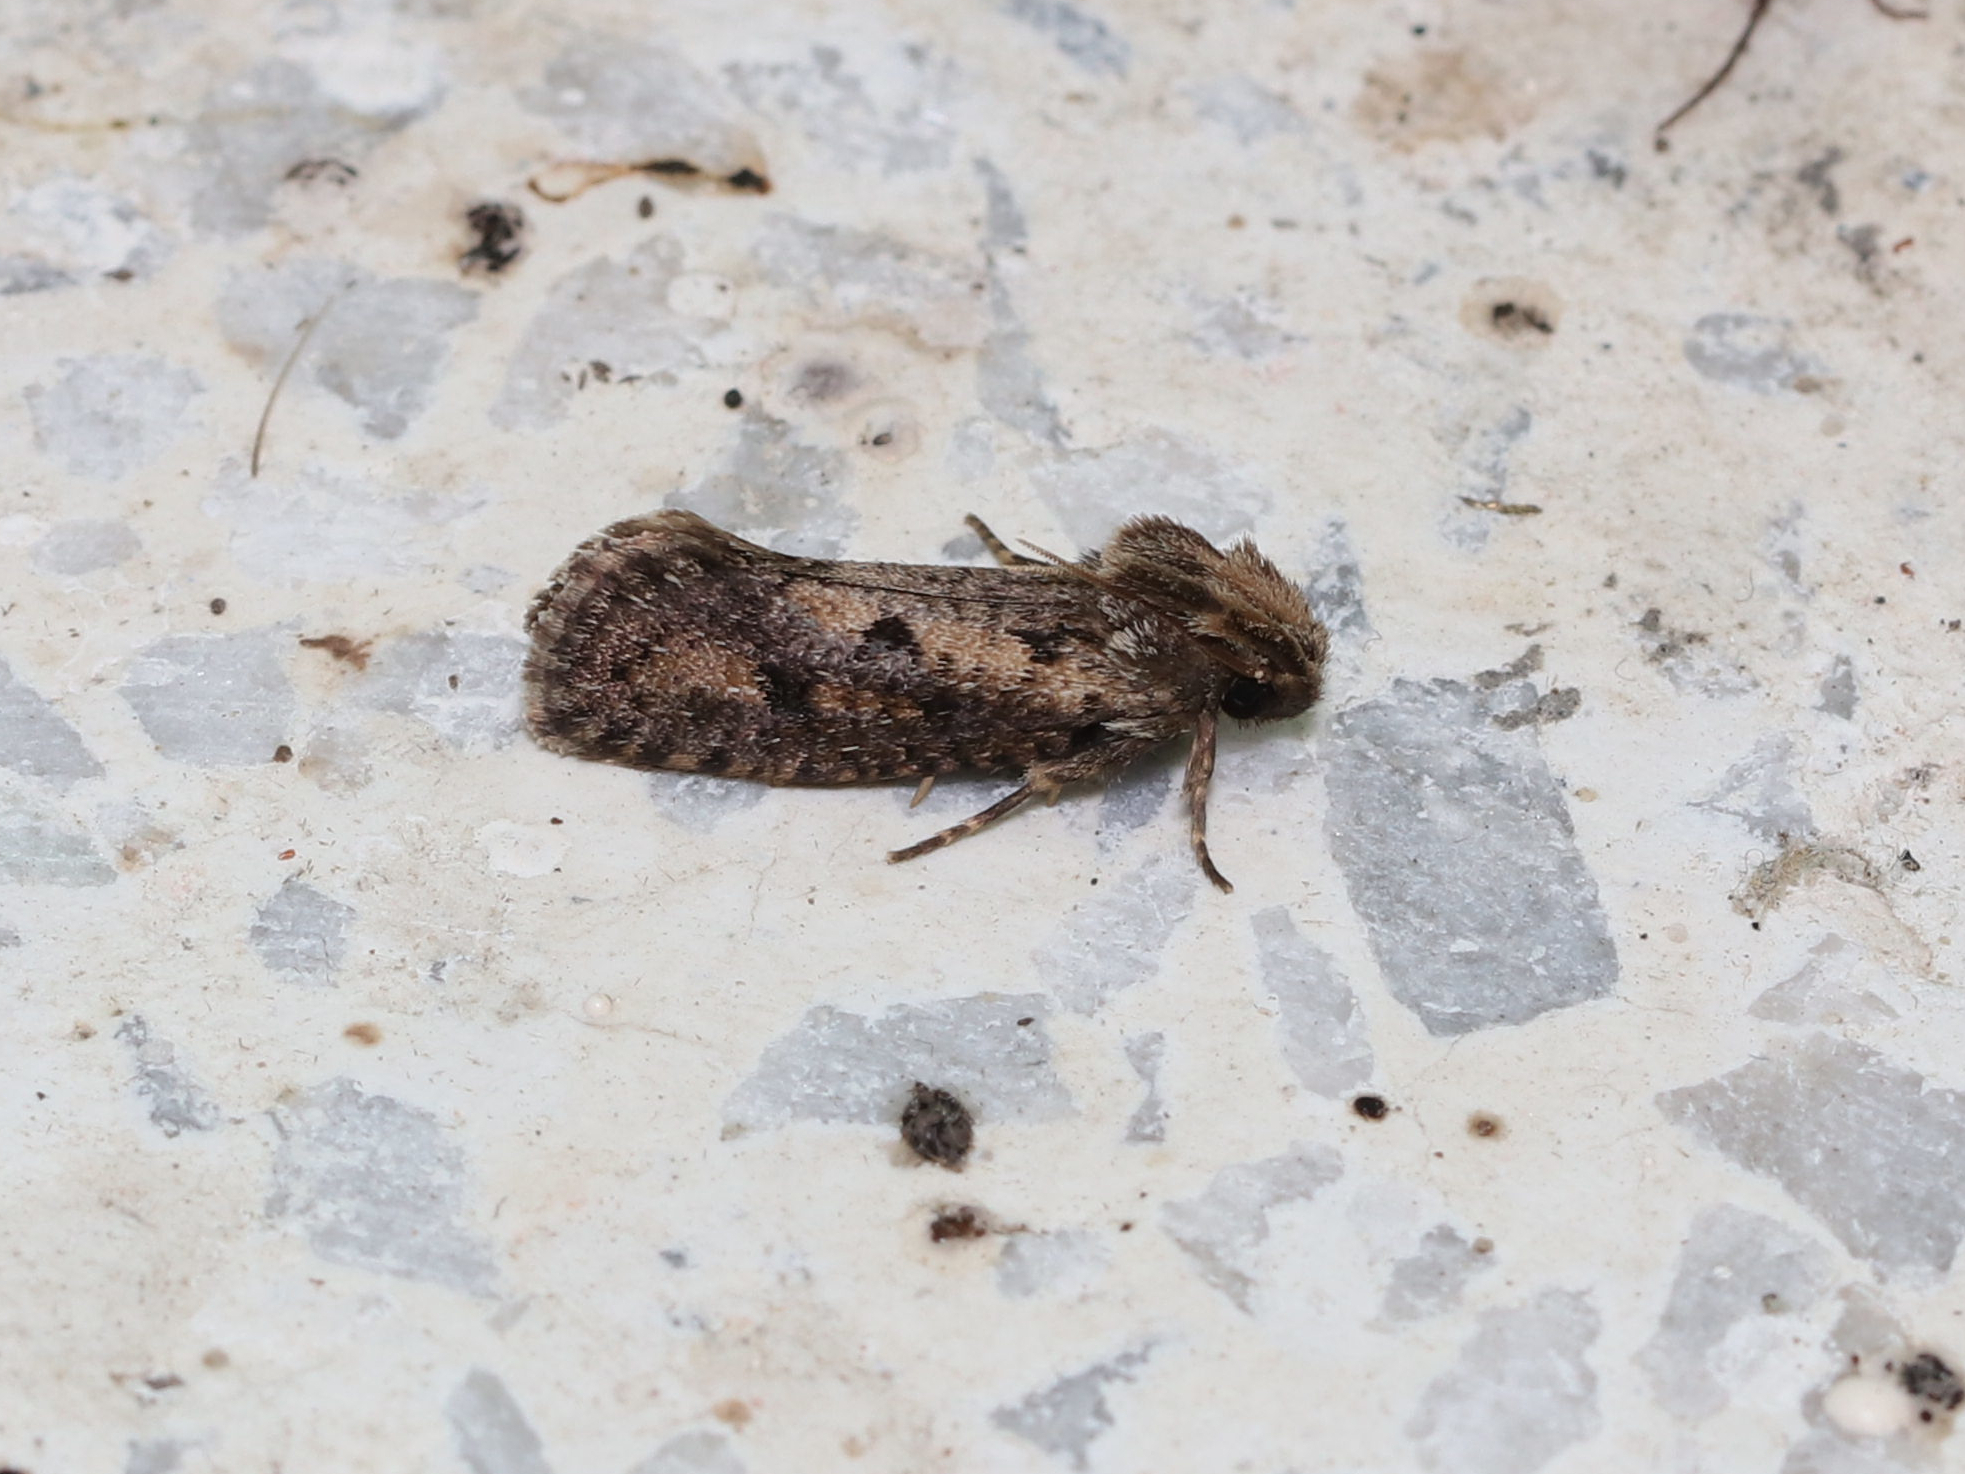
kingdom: Animalia
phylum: Arthropoda
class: Insecta
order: Lepidoptera
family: Tineidae
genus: Acrolophus
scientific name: Acrolophus popeanella
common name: Clemens' grass tubeworm moth
